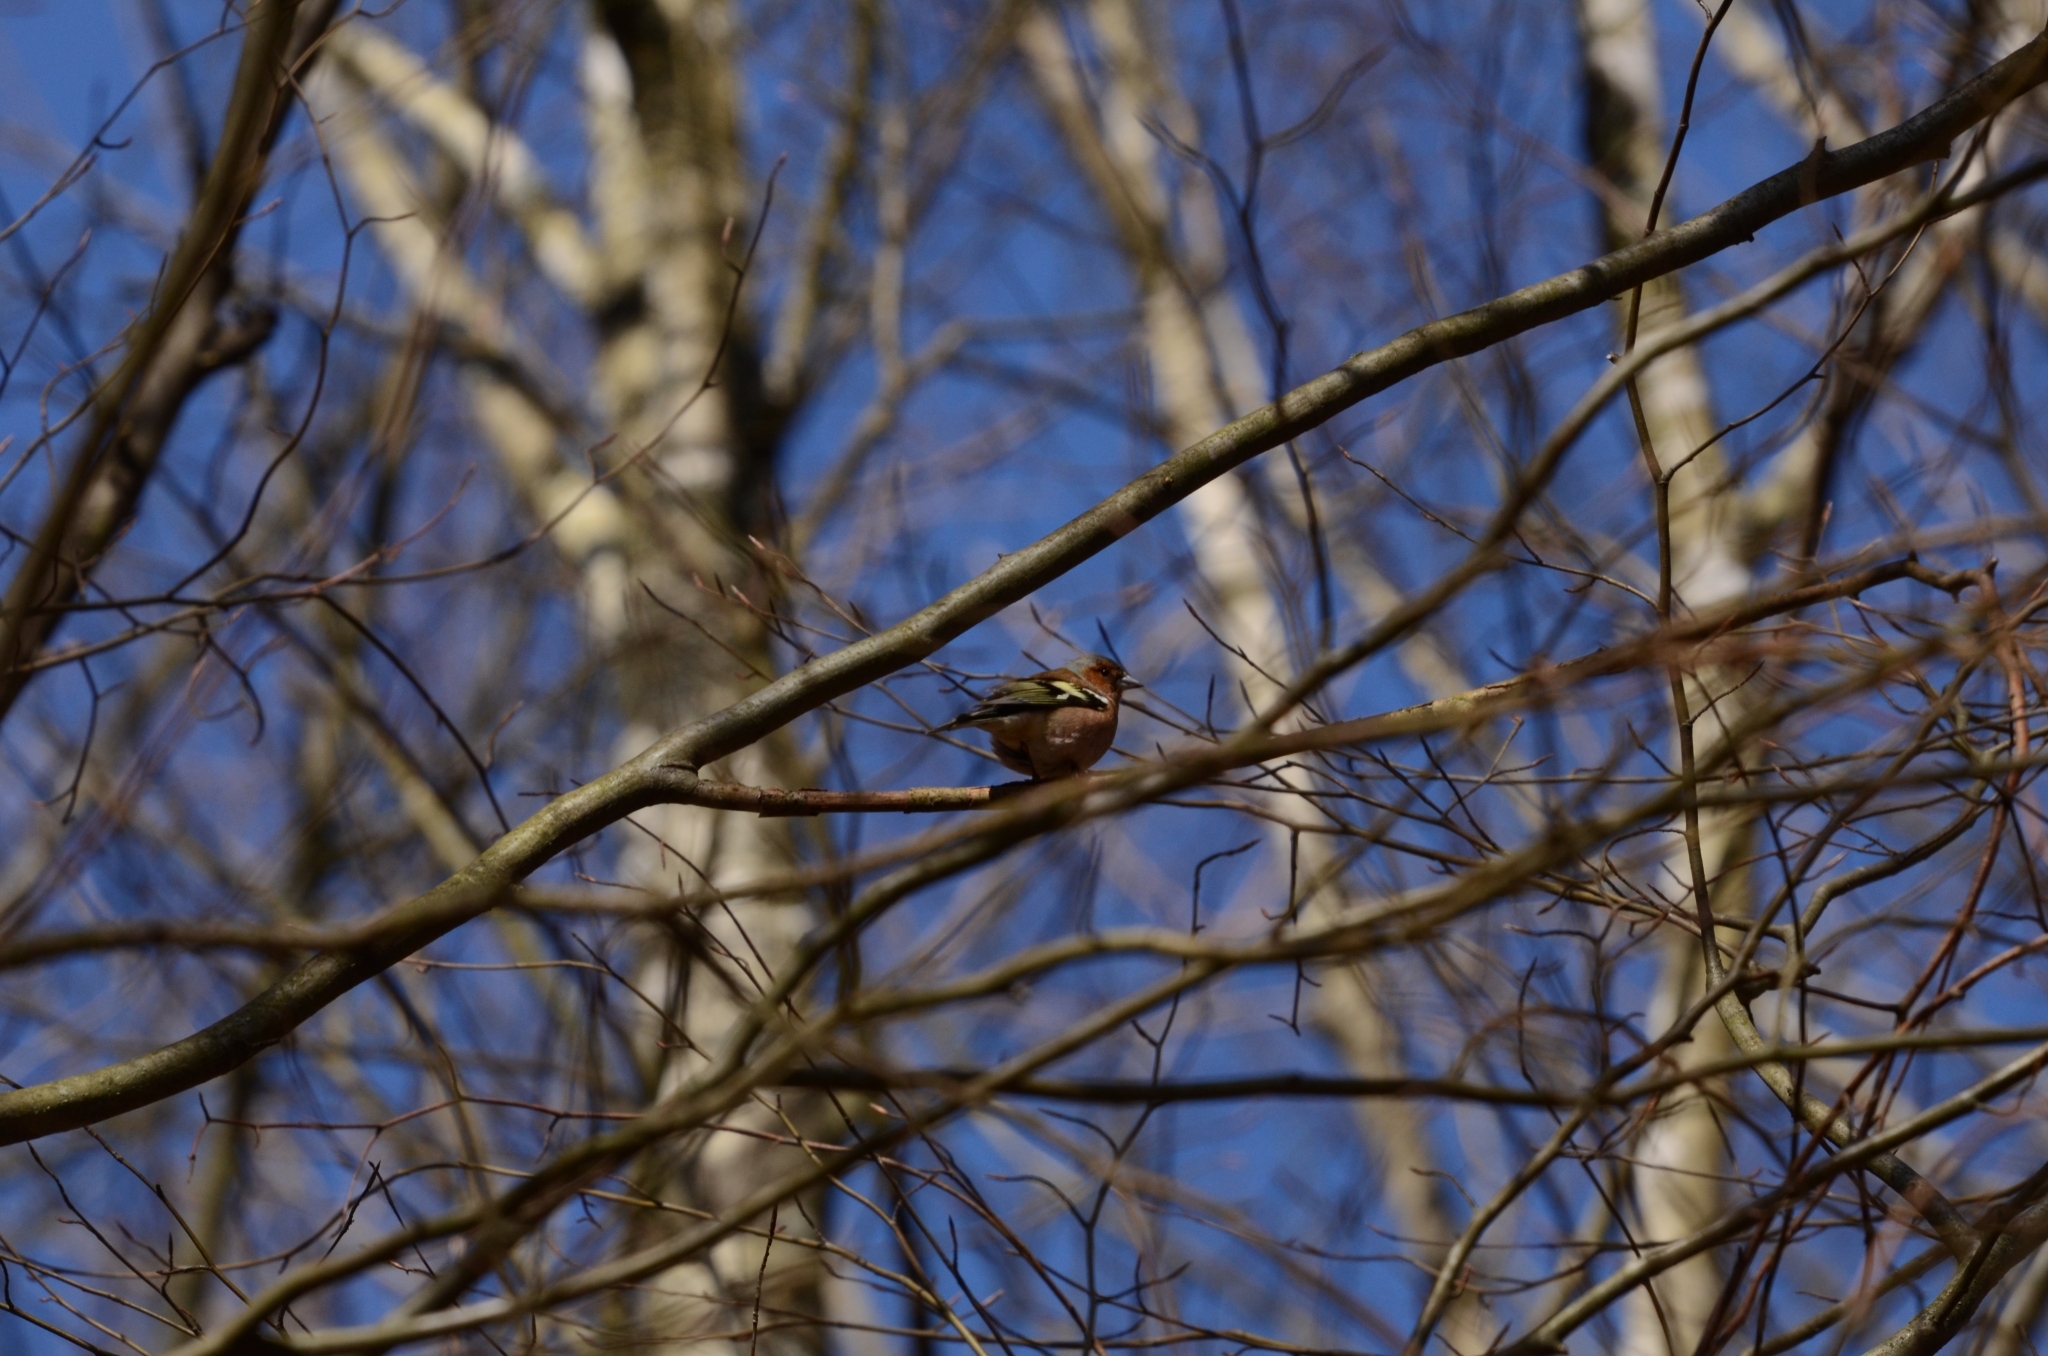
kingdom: Animalia
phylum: Chordata
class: Aves
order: Passeriformes
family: Fringillidae
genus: Fringilla
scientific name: Fringilla coelebs
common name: Common chaffinch
